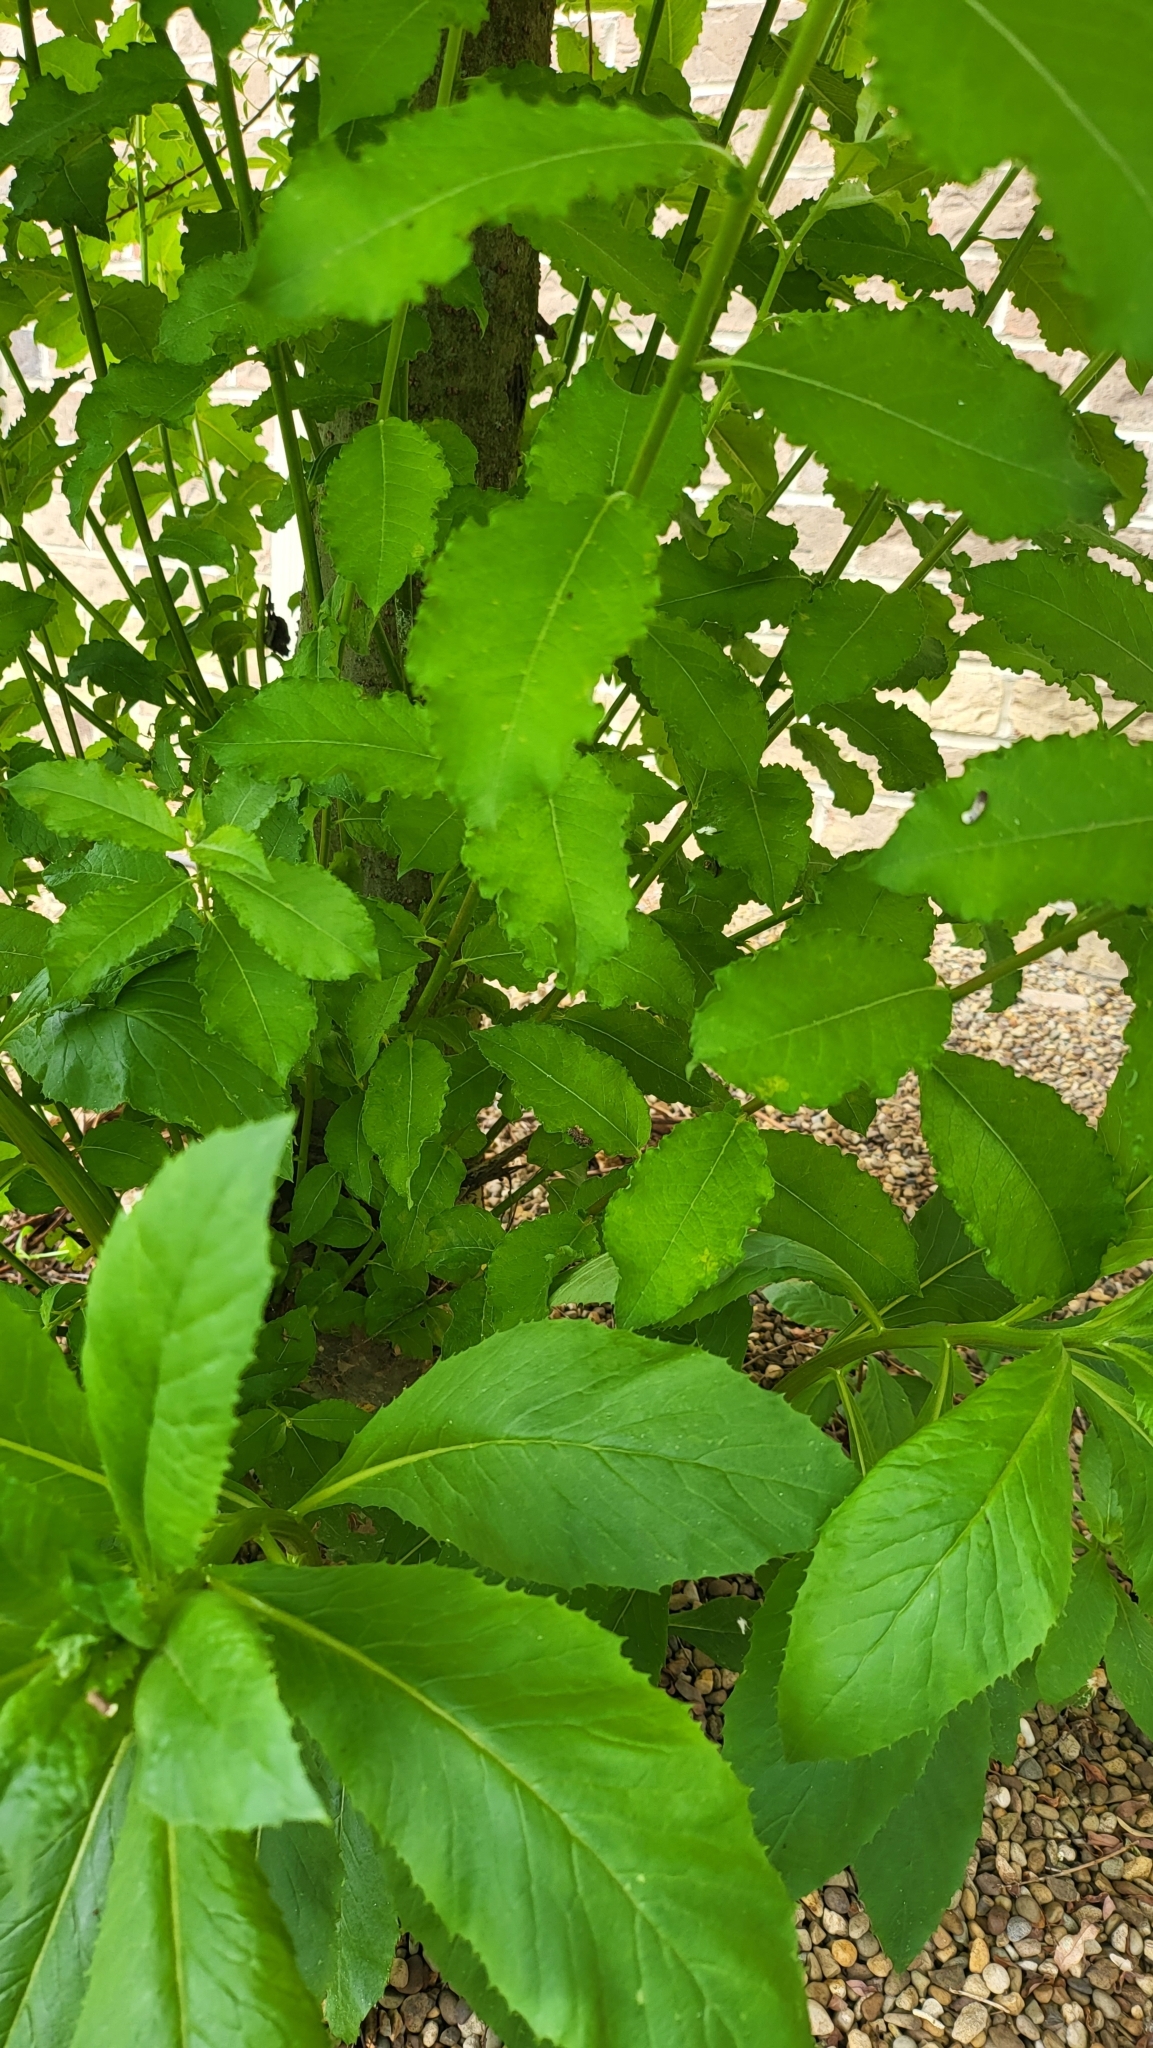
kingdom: Plantae
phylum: Tracheophyta
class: Magnoliopsida
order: Asterales
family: Asteraceae
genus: Erechtites
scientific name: Erechtites hieraciifolius
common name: American burnweed
